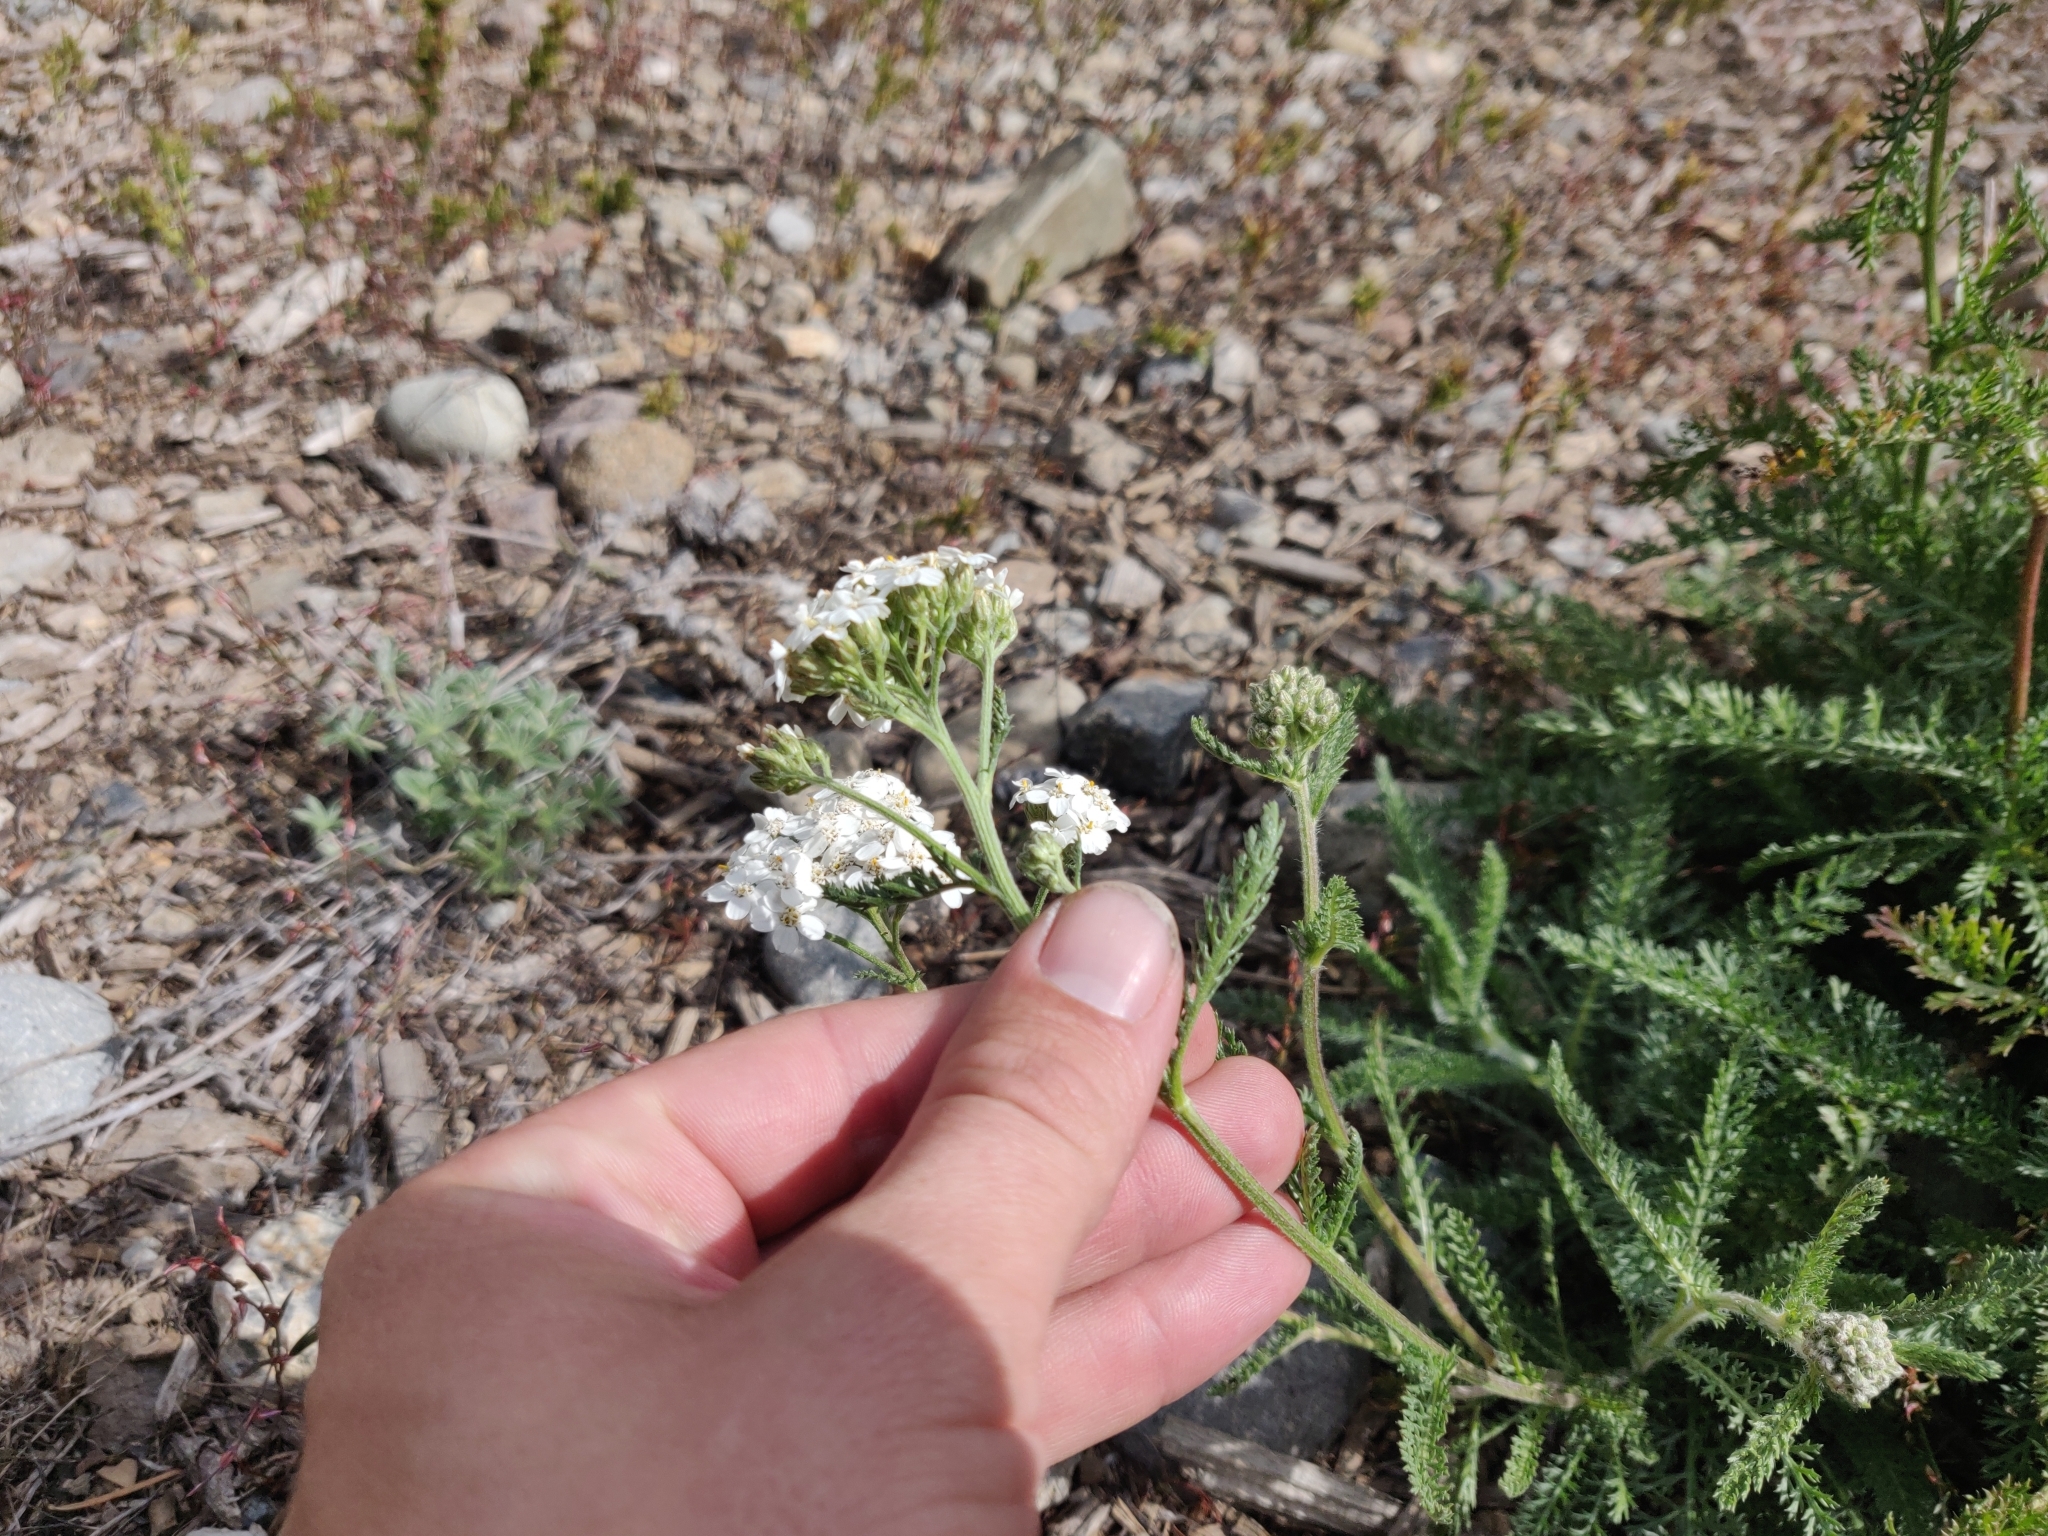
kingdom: Plantae
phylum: Tracheophyta
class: Magnoliopsida
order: Asterales
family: Asteraceae
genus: Achillea
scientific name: Achillea millefolium
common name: Yarrow
